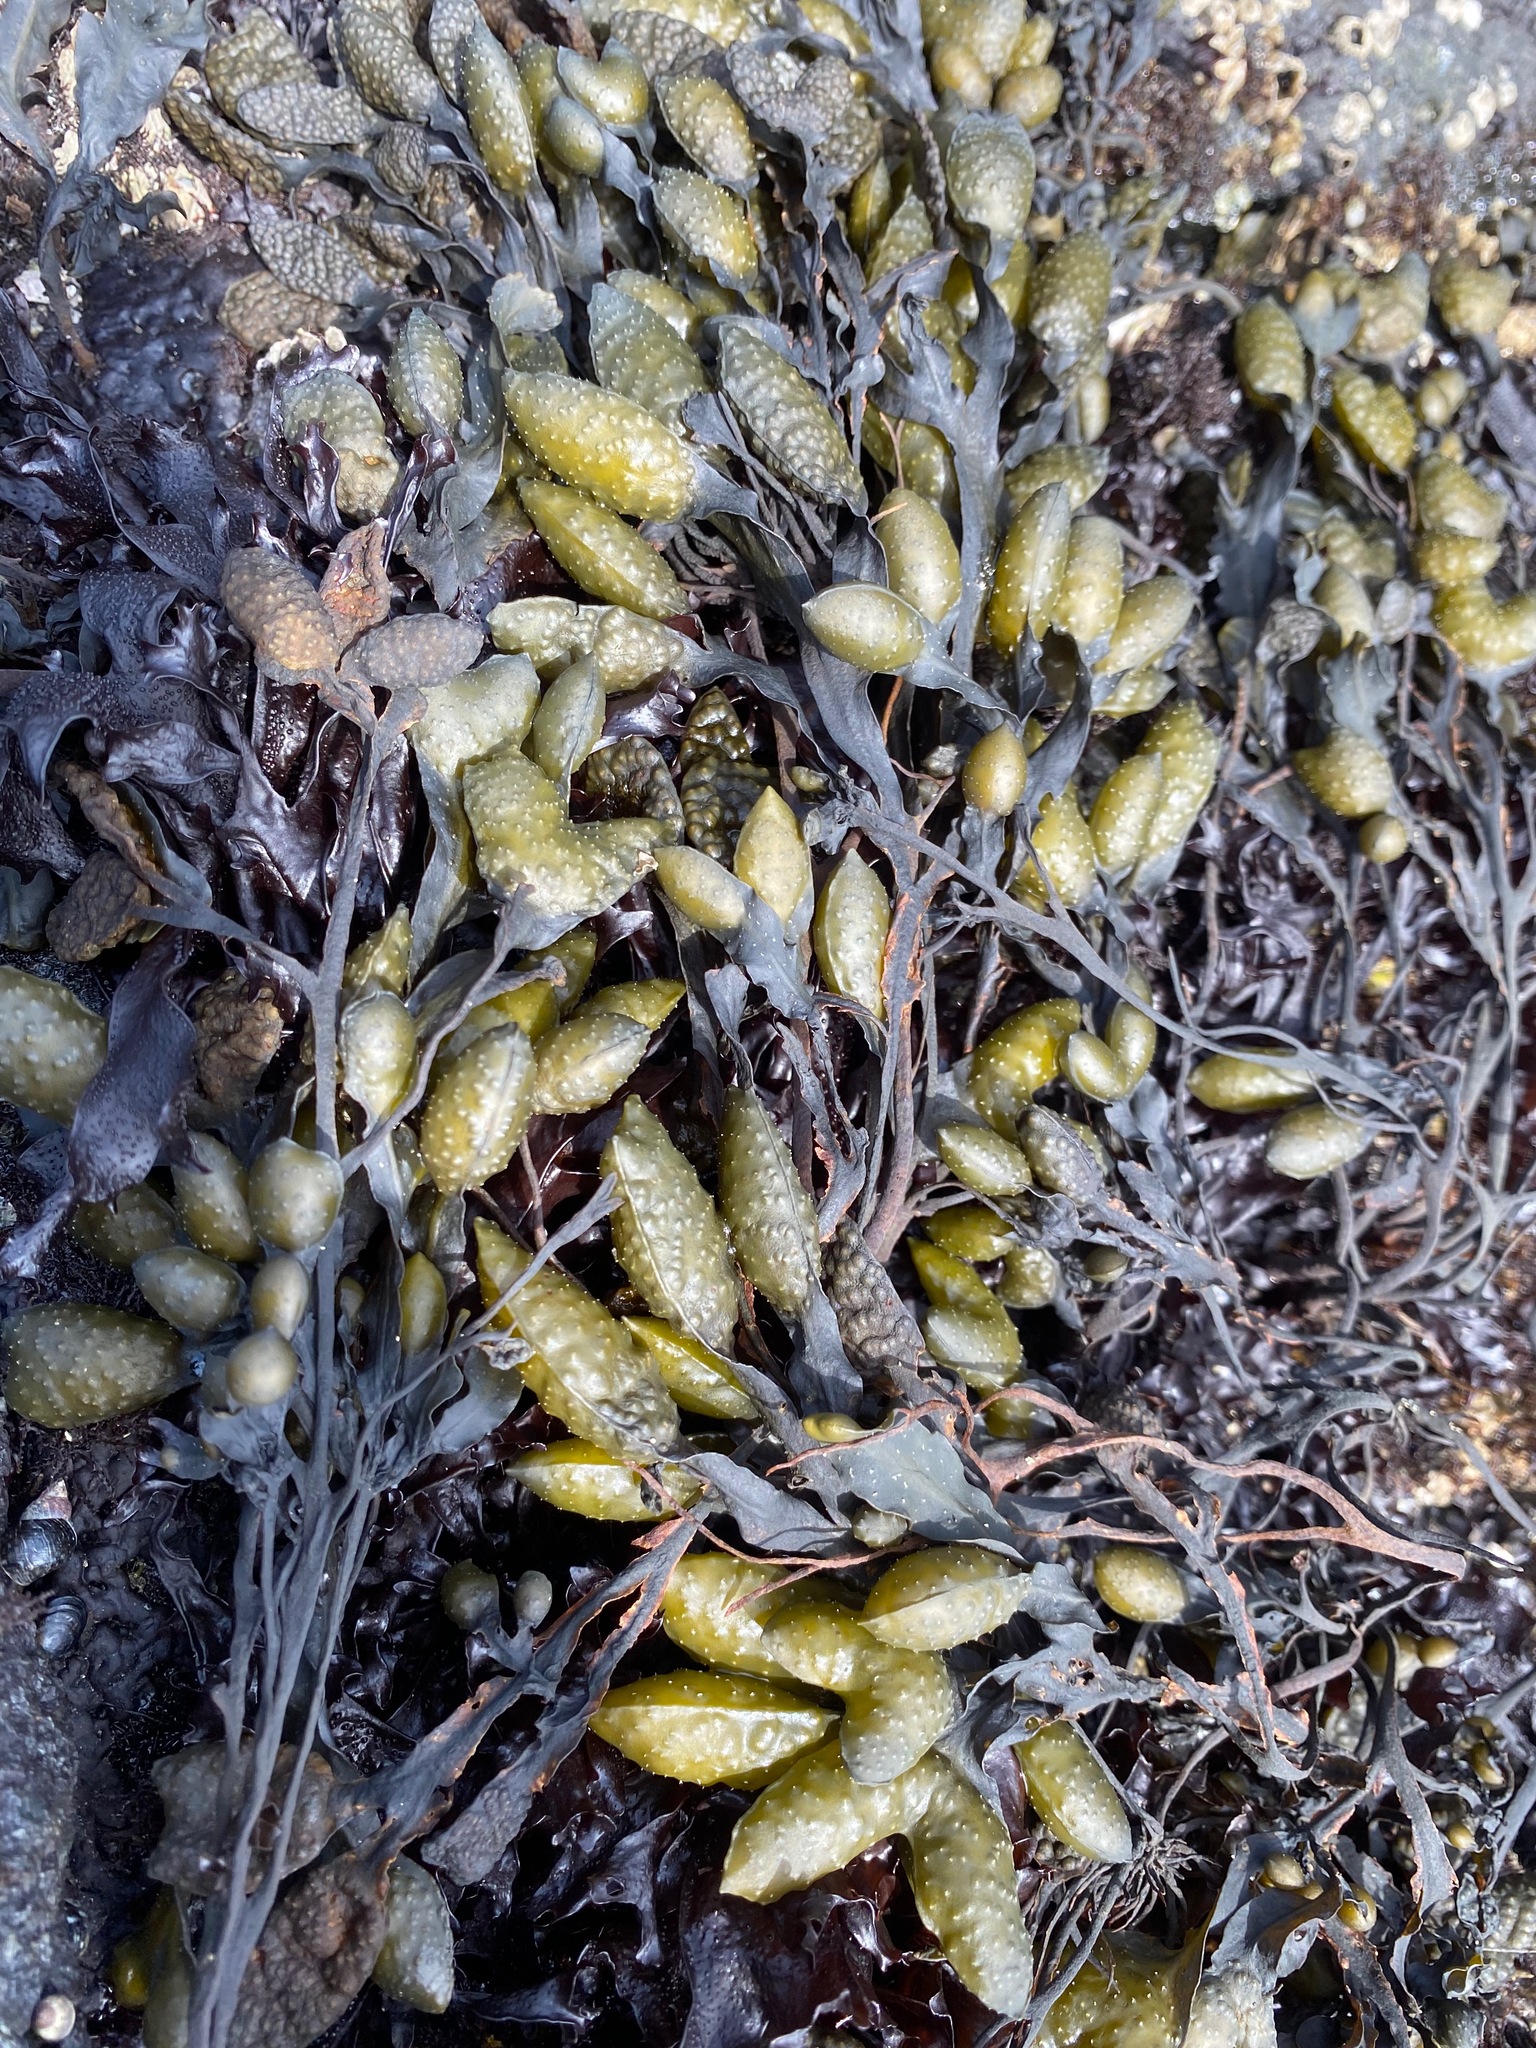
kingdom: Chromista
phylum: Ochrophyta
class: Phaeophyceae
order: Fucales
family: Fucaceae
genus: Fucus
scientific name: Fucus distichus
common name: Rockweed
